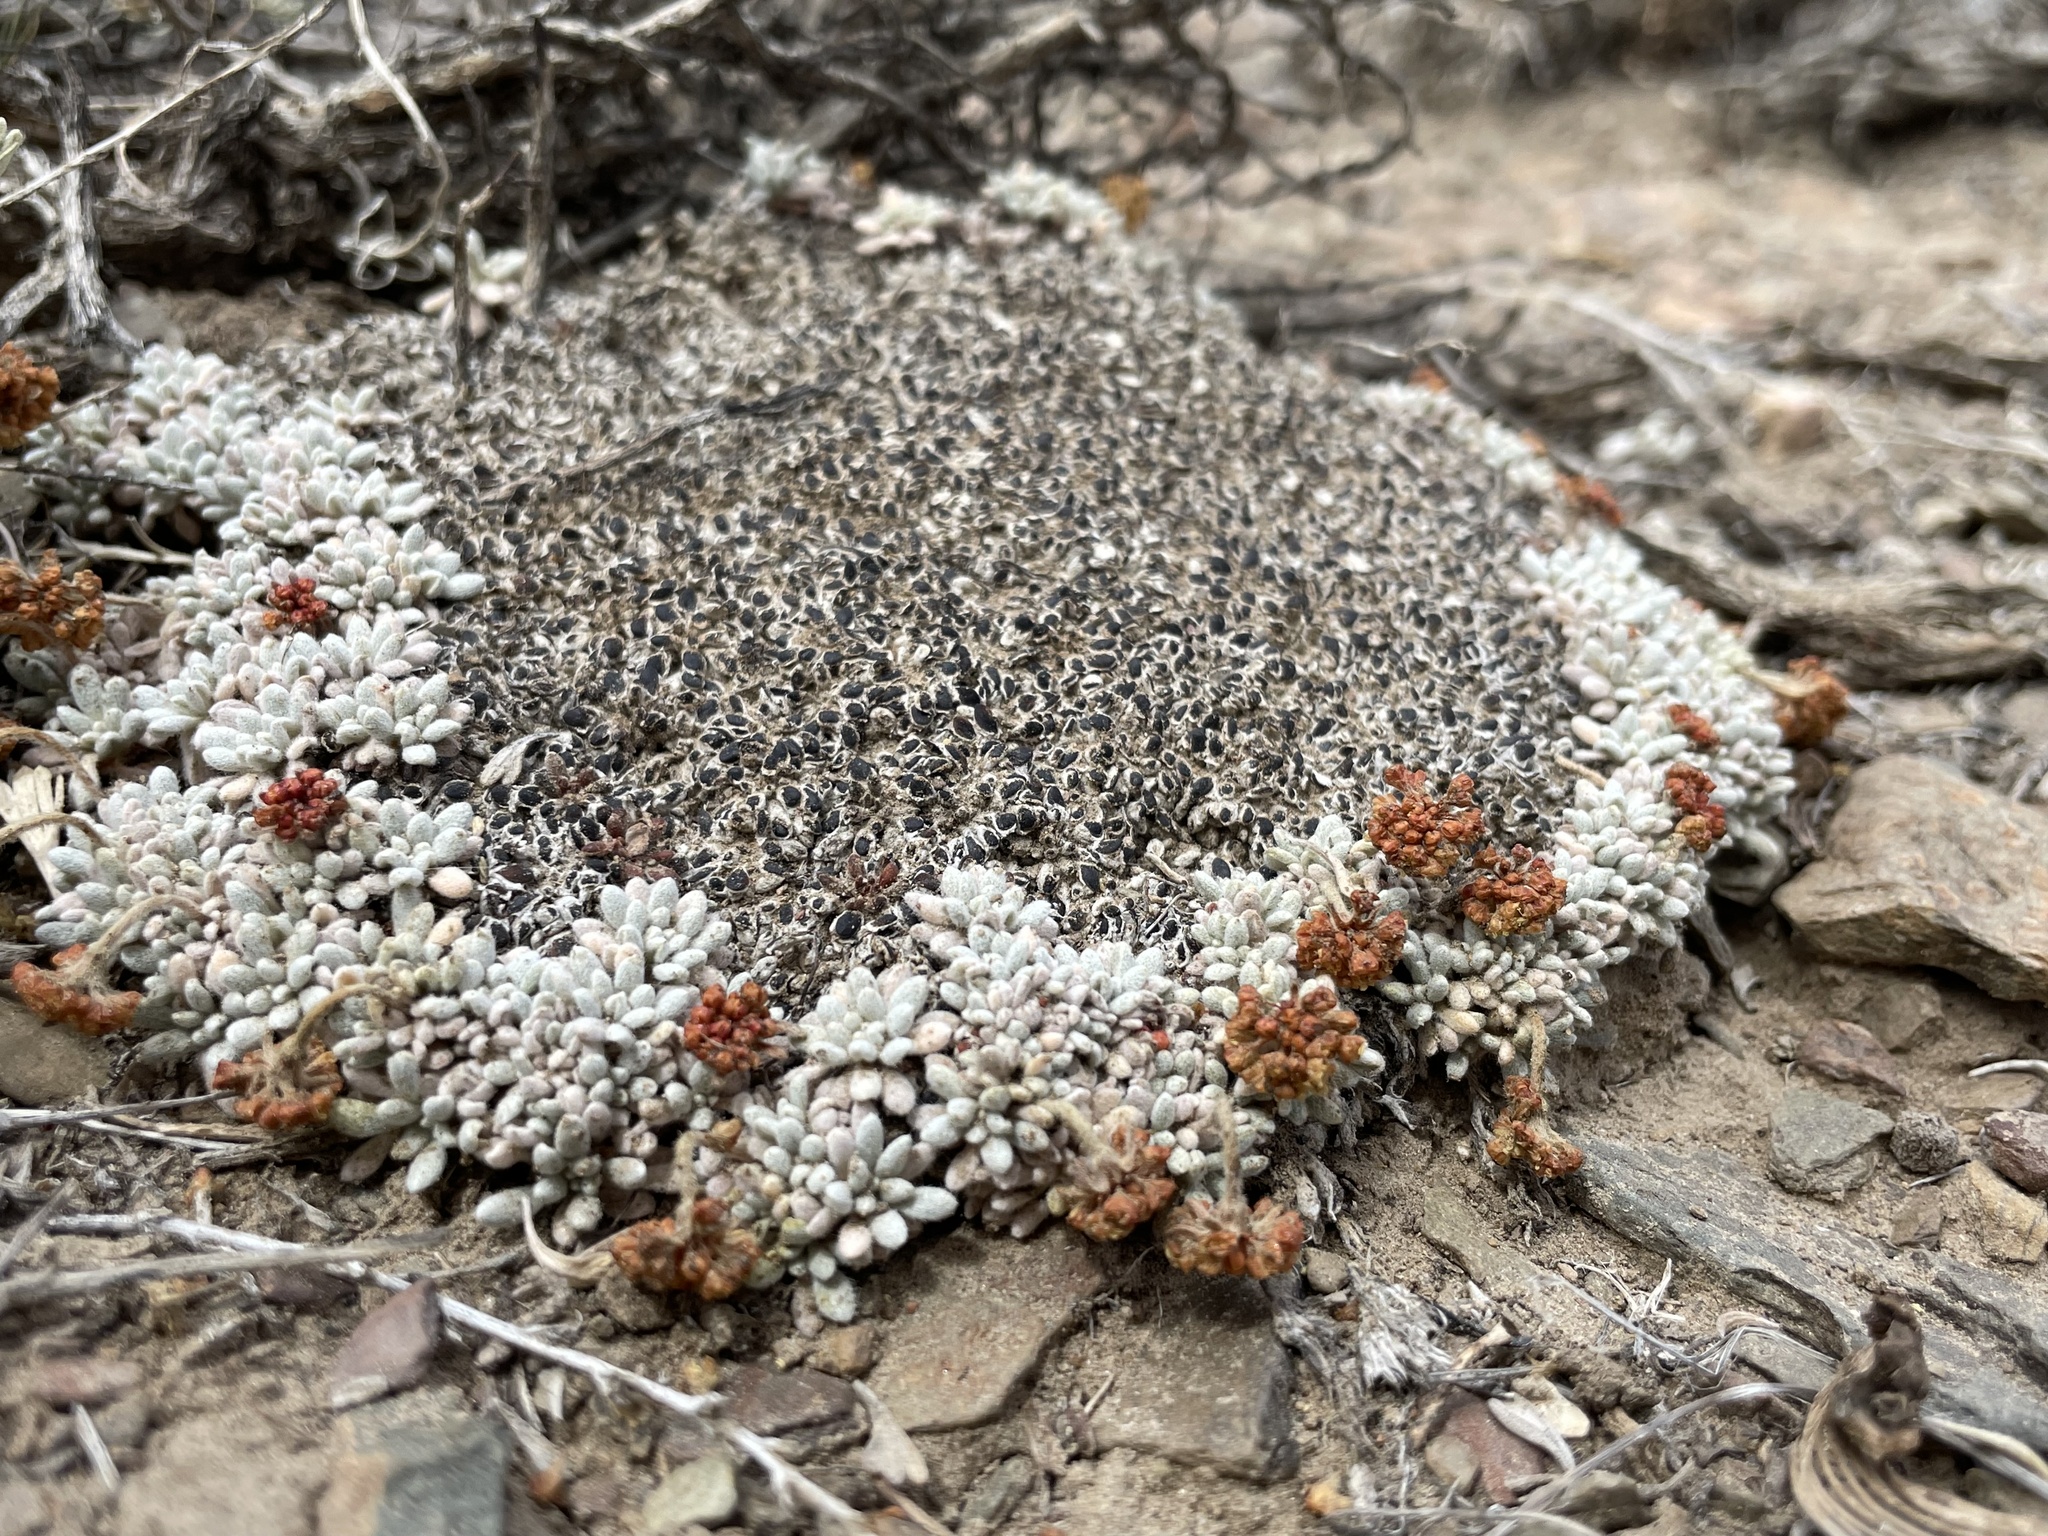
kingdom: Plantae
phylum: Tracheophyta
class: Magnoliopsida
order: Caryophyllales
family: Polygonaceae
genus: Eriogonum
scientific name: Eriogonum caespitosum
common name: Matted wild buckwheat
